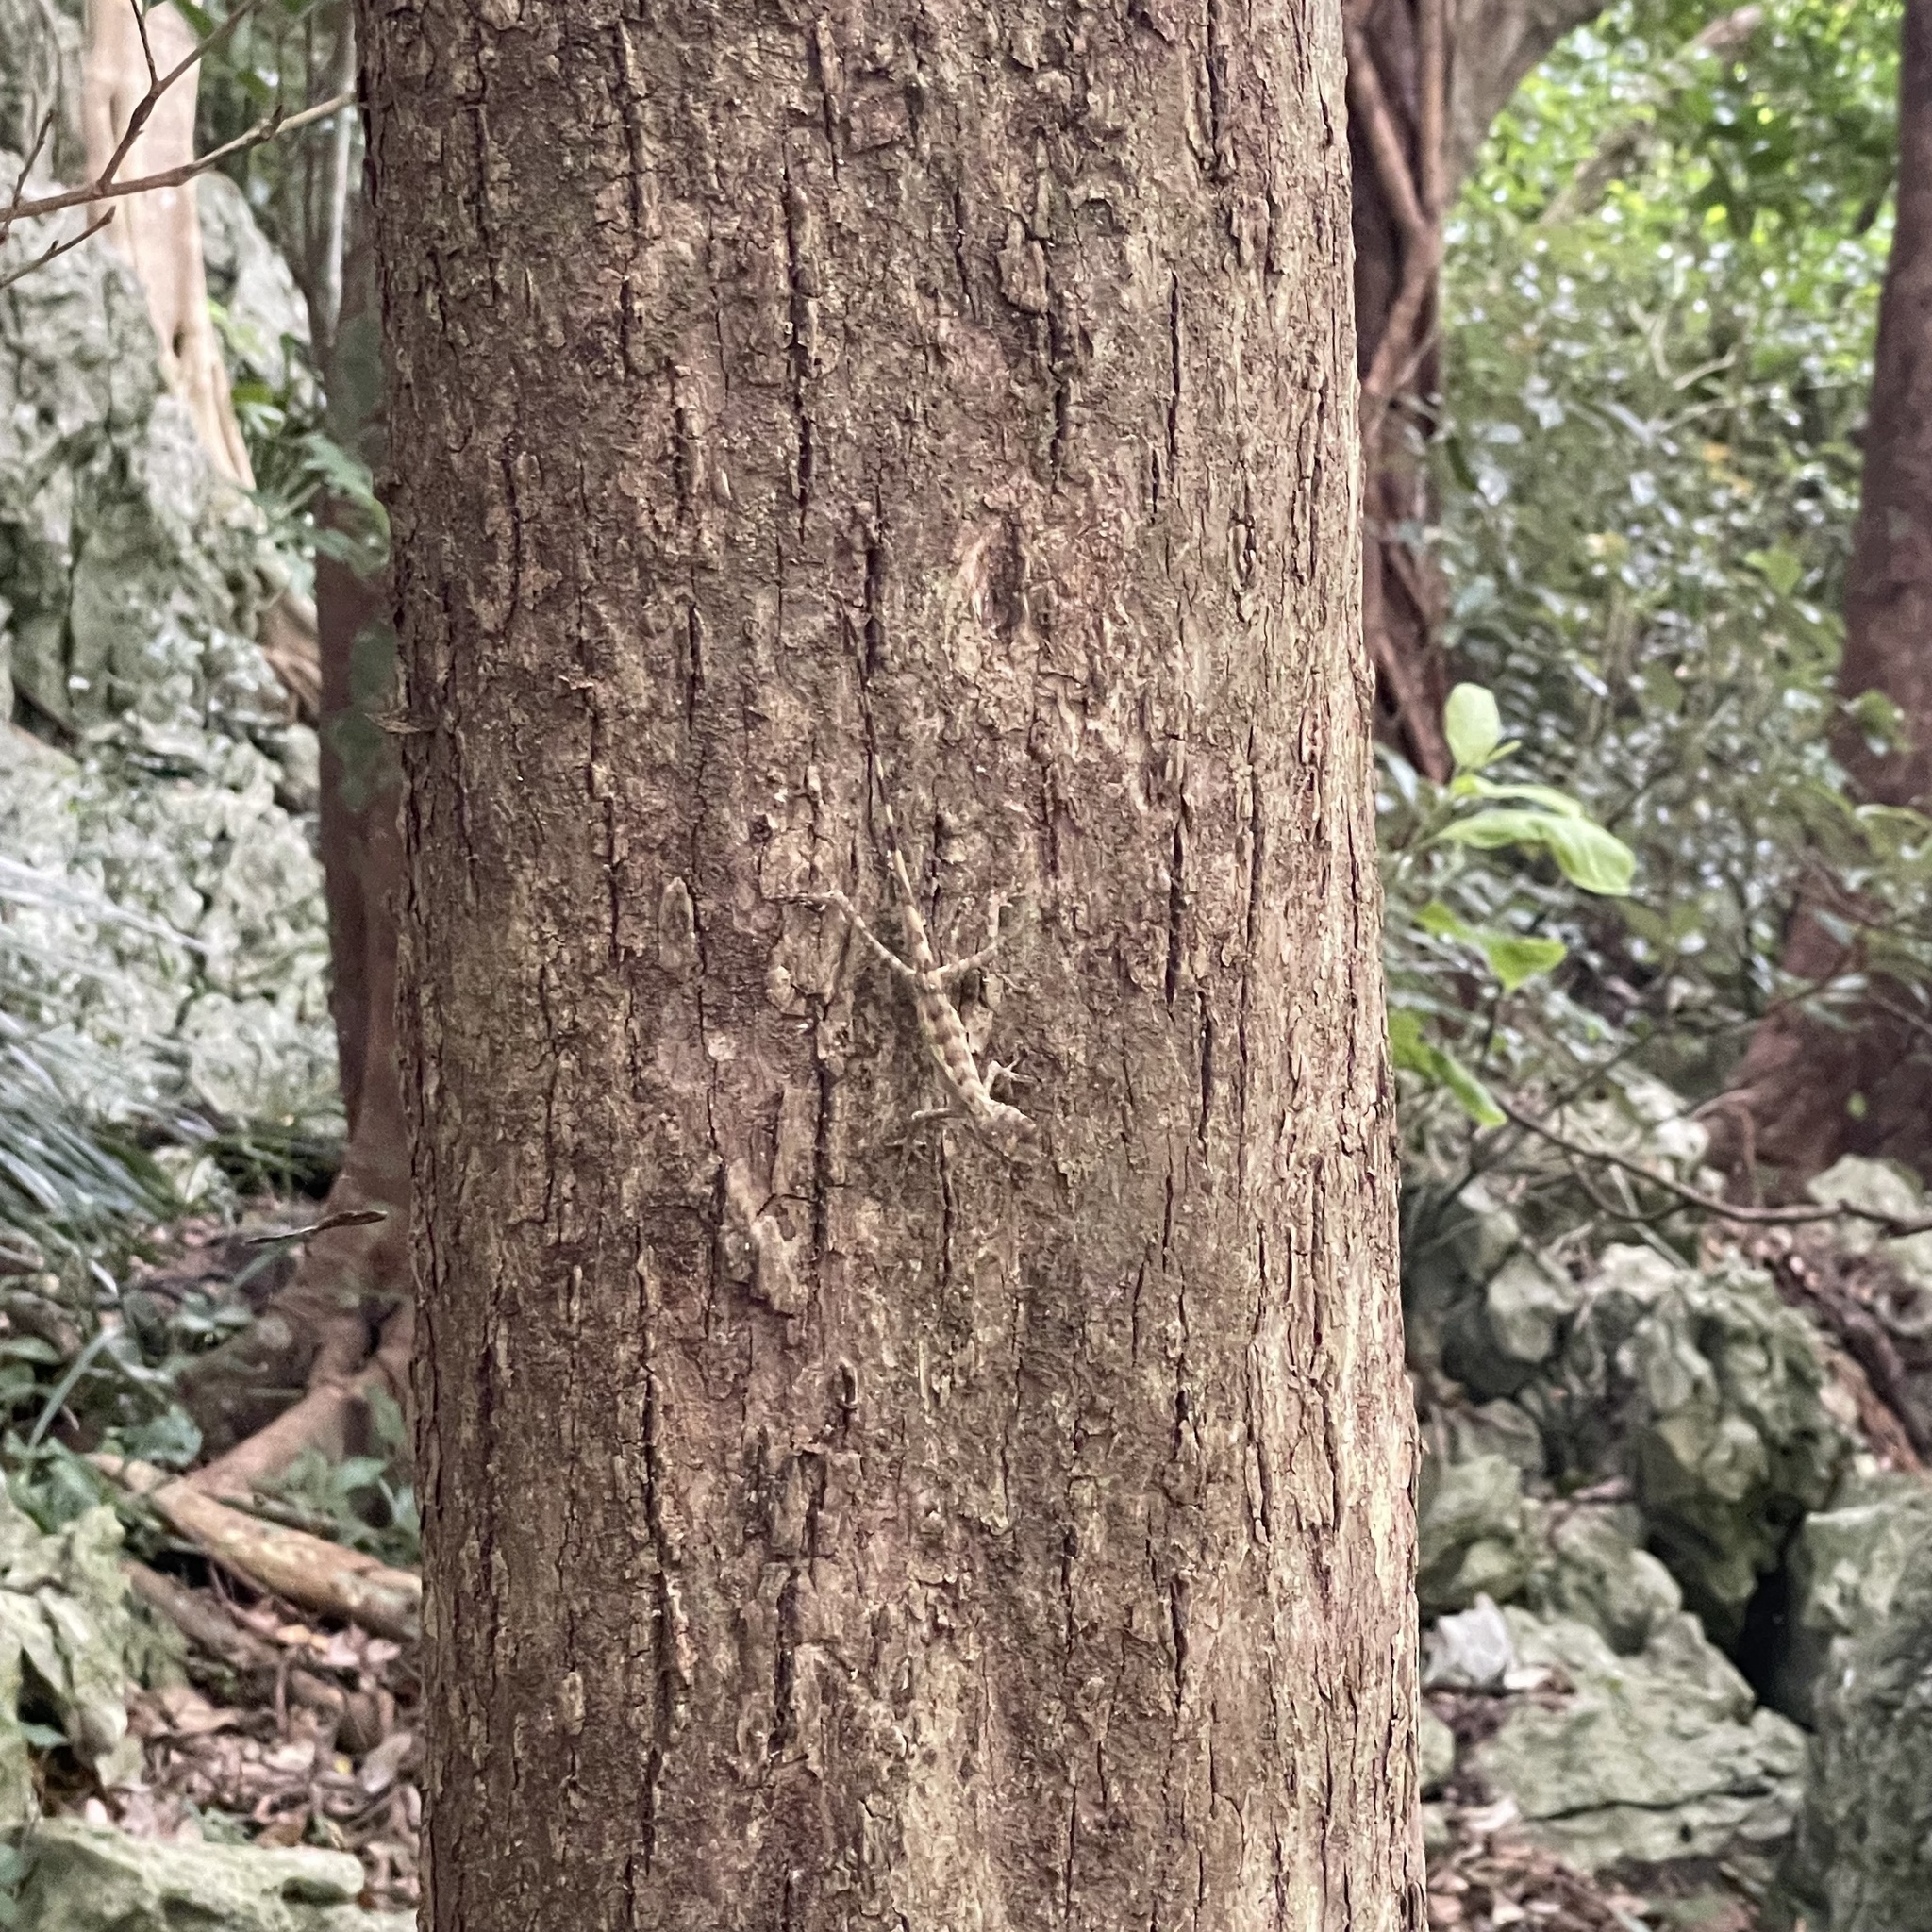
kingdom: Fungi
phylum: Basidiomycota
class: Agaricomycetes
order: Boletales
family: Diplocystidiaceae
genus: Diploderma
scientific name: Diploderma polygonatum
